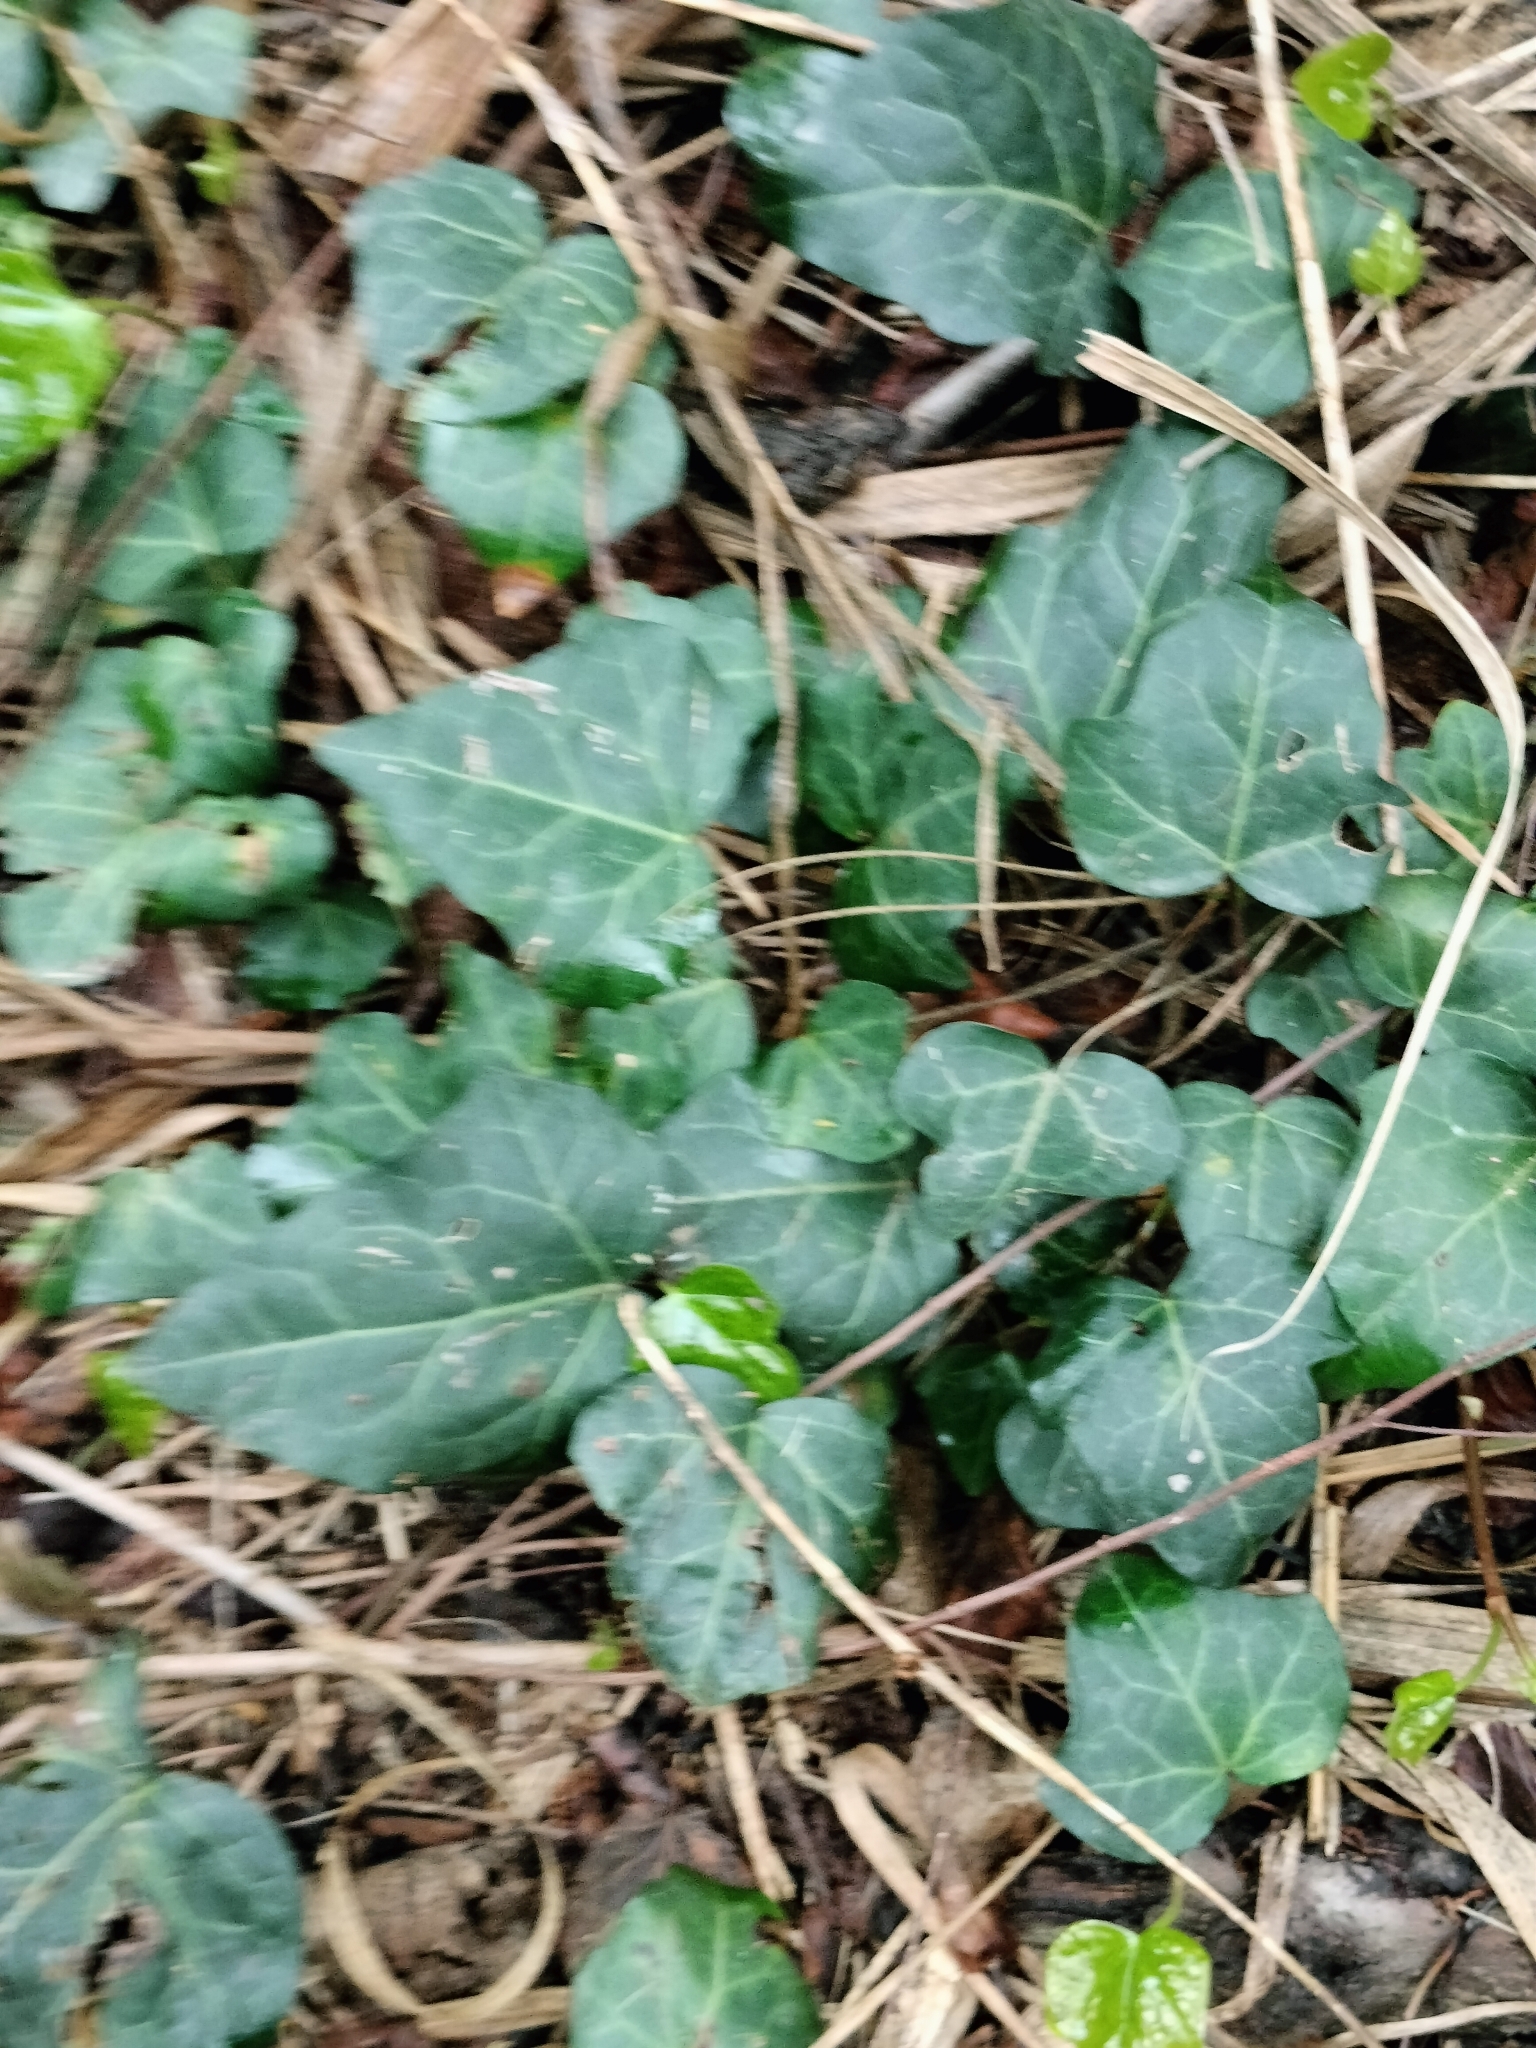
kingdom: Plantae
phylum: Tracheophyta
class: Magnoliopsida
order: Apiales
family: Araliaceae
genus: Hedera
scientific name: Hedera helix
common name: Ivy
